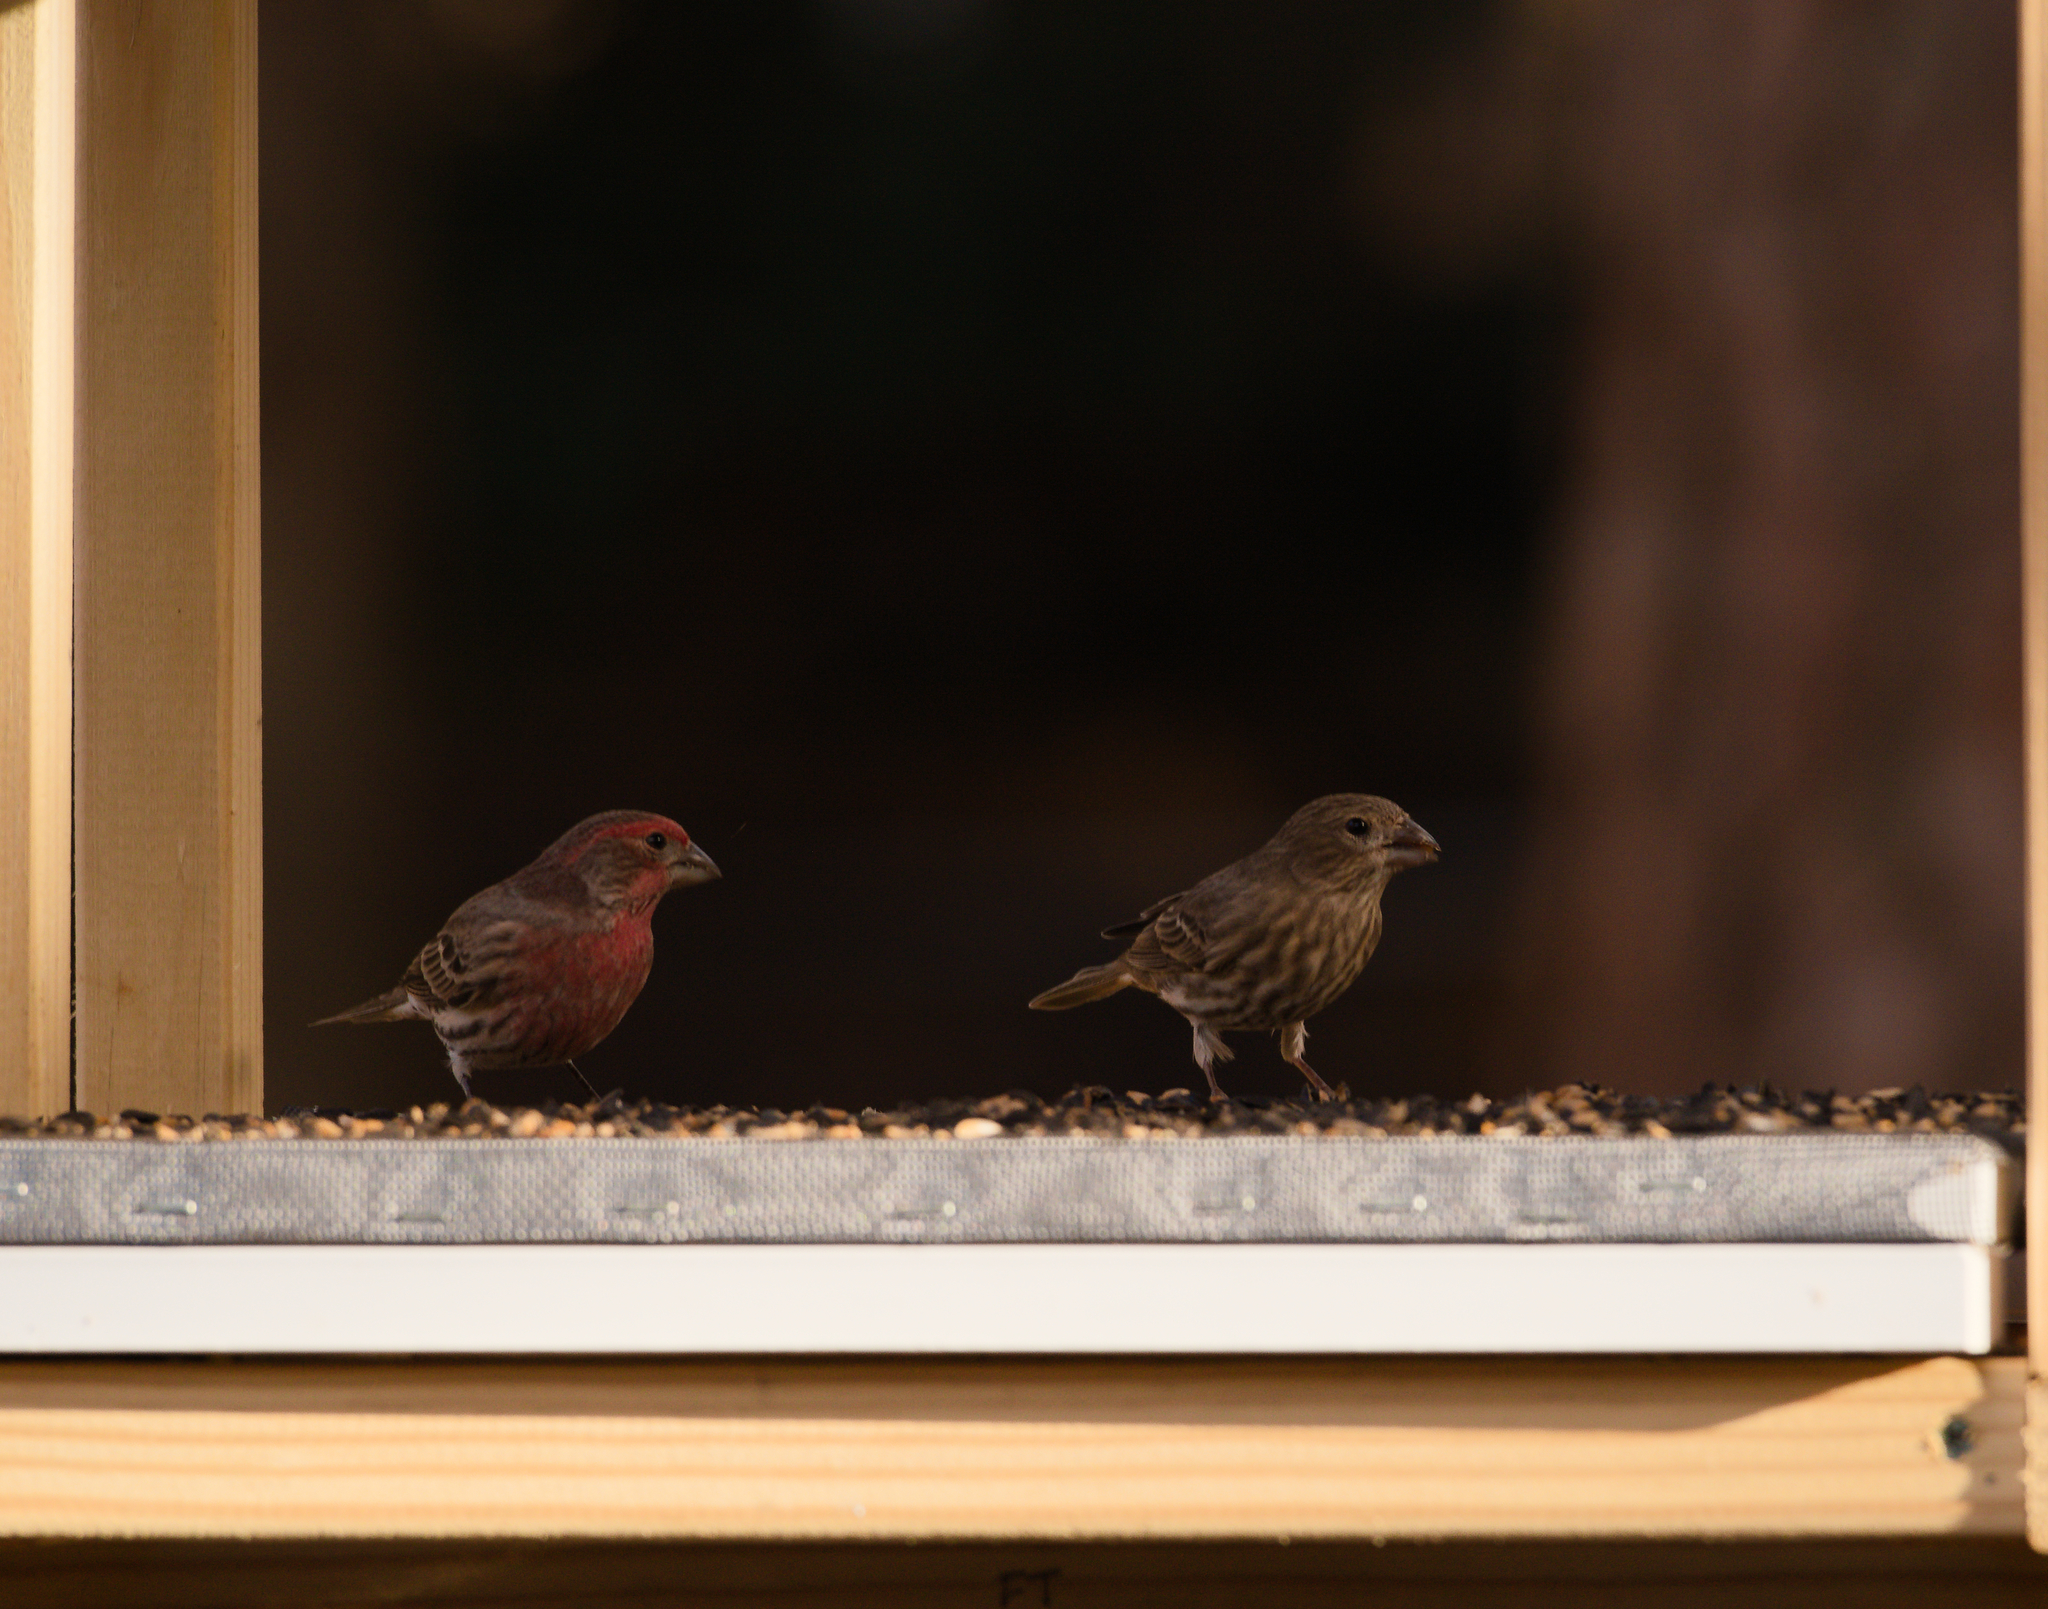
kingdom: Animalia
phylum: Chordata
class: Aves
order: Passeriformes
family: Fringillidae
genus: Haemorhous
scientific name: Haemorhous mexicanus
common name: House finch
